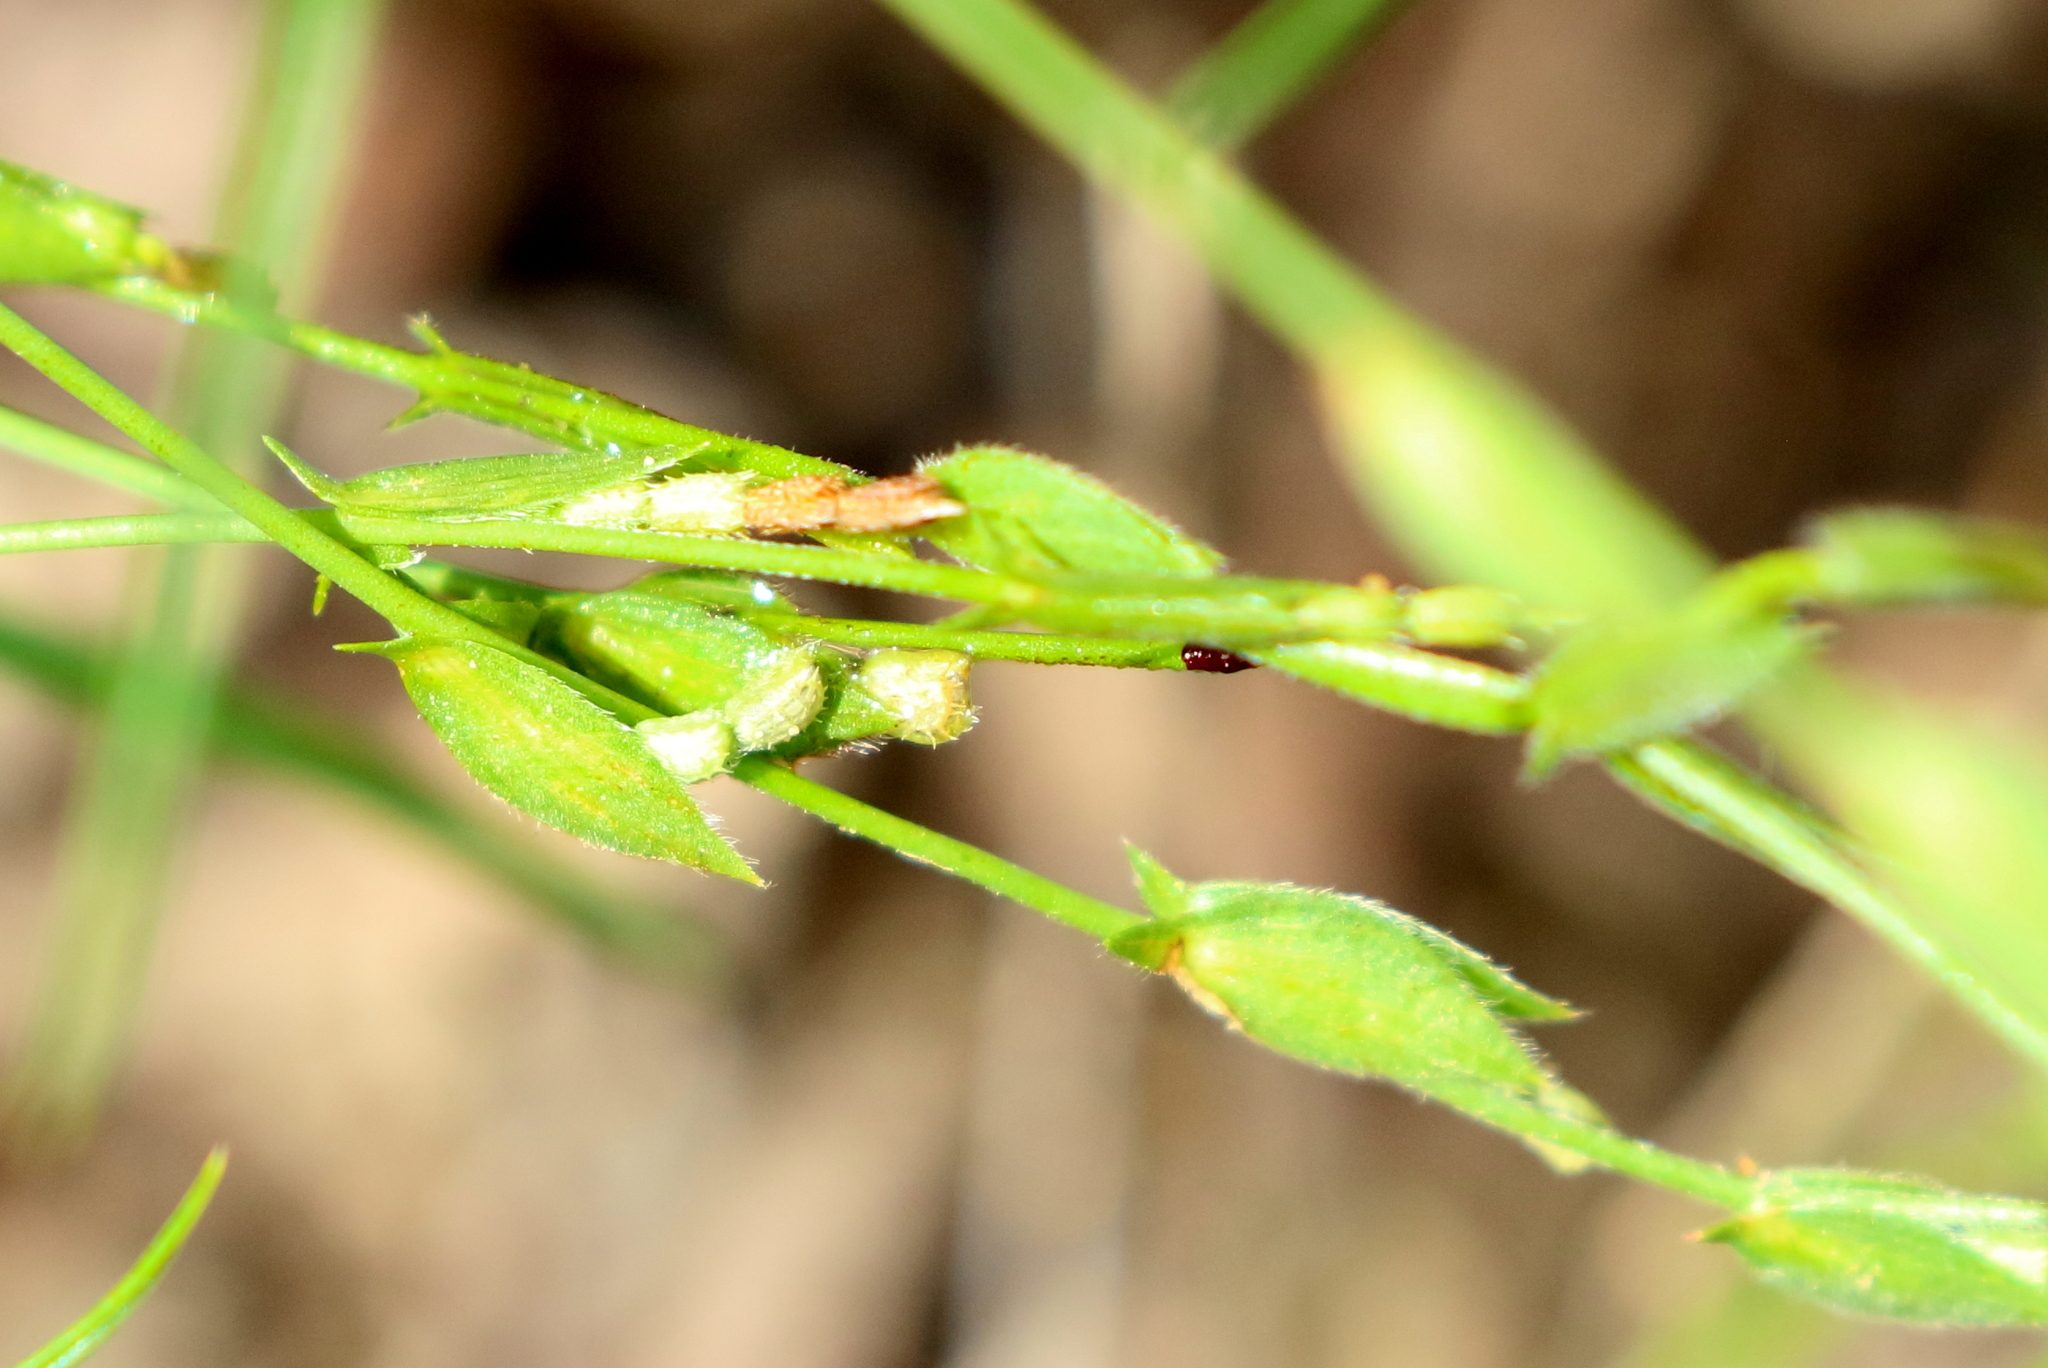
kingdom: Plantae
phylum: Tracheophyta
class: Magnoliopsida
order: Fabales
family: Fabaceae
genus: Zornia
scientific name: Zornia floribunda
